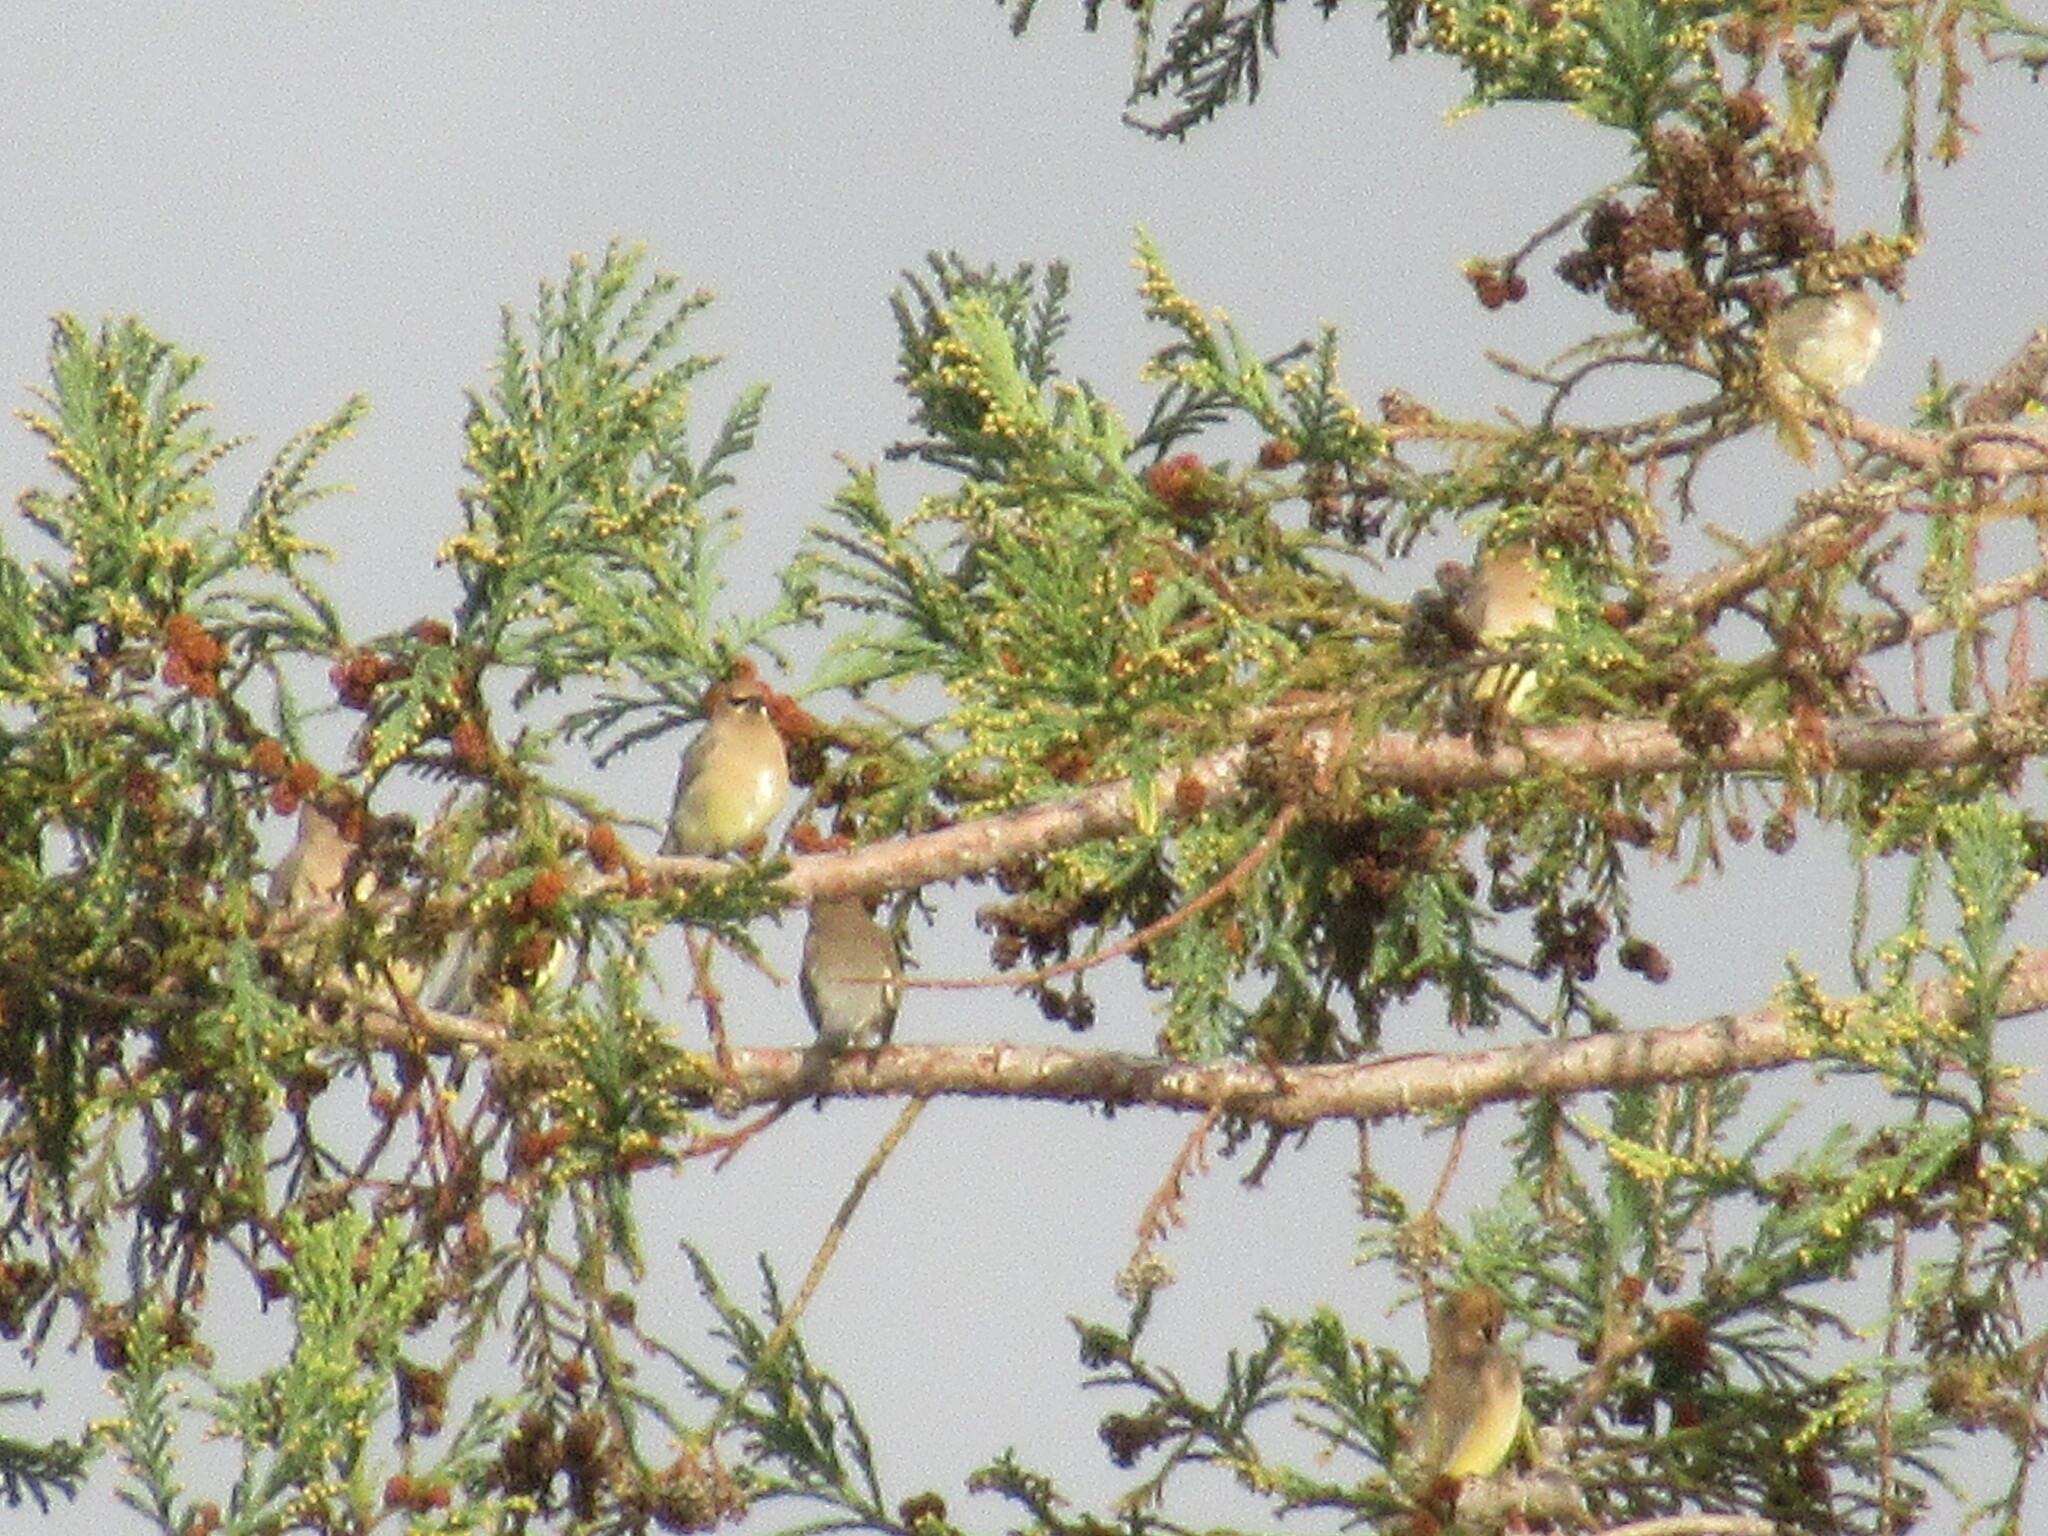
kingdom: Animalia
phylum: Chordata
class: Aves
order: Passeriformes
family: Bombycillidae
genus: Bombycilla
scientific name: Bombycilla cedrorum
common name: Cedar waxwing
